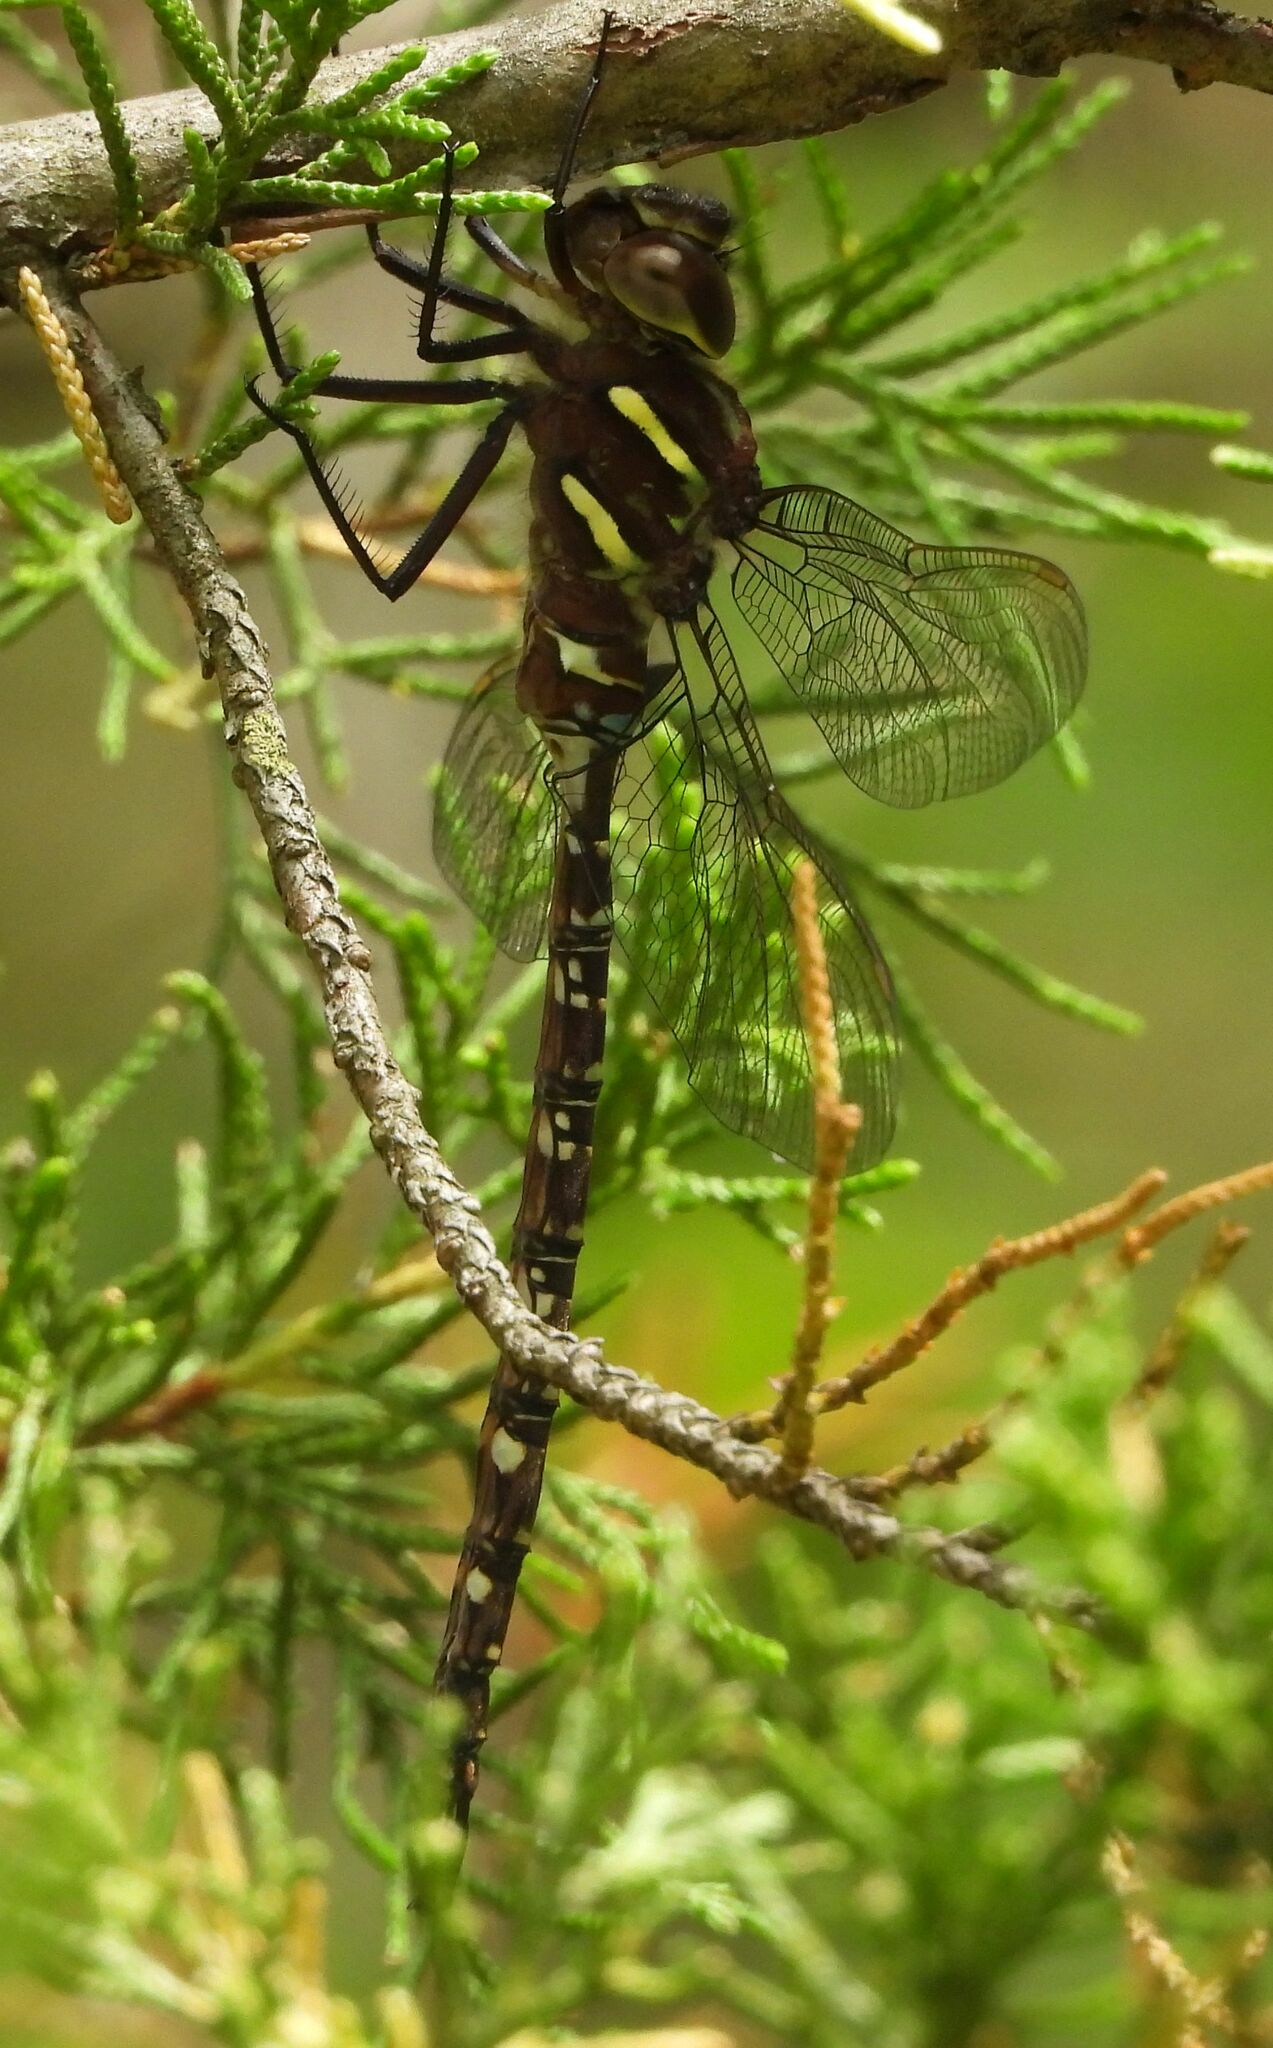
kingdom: Animalia
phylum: Arthropoda
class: Insecta
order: Odonata
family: Aeshnidae
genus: Aeshna
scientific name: Aeshna umbrosa
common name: Shadow darner
